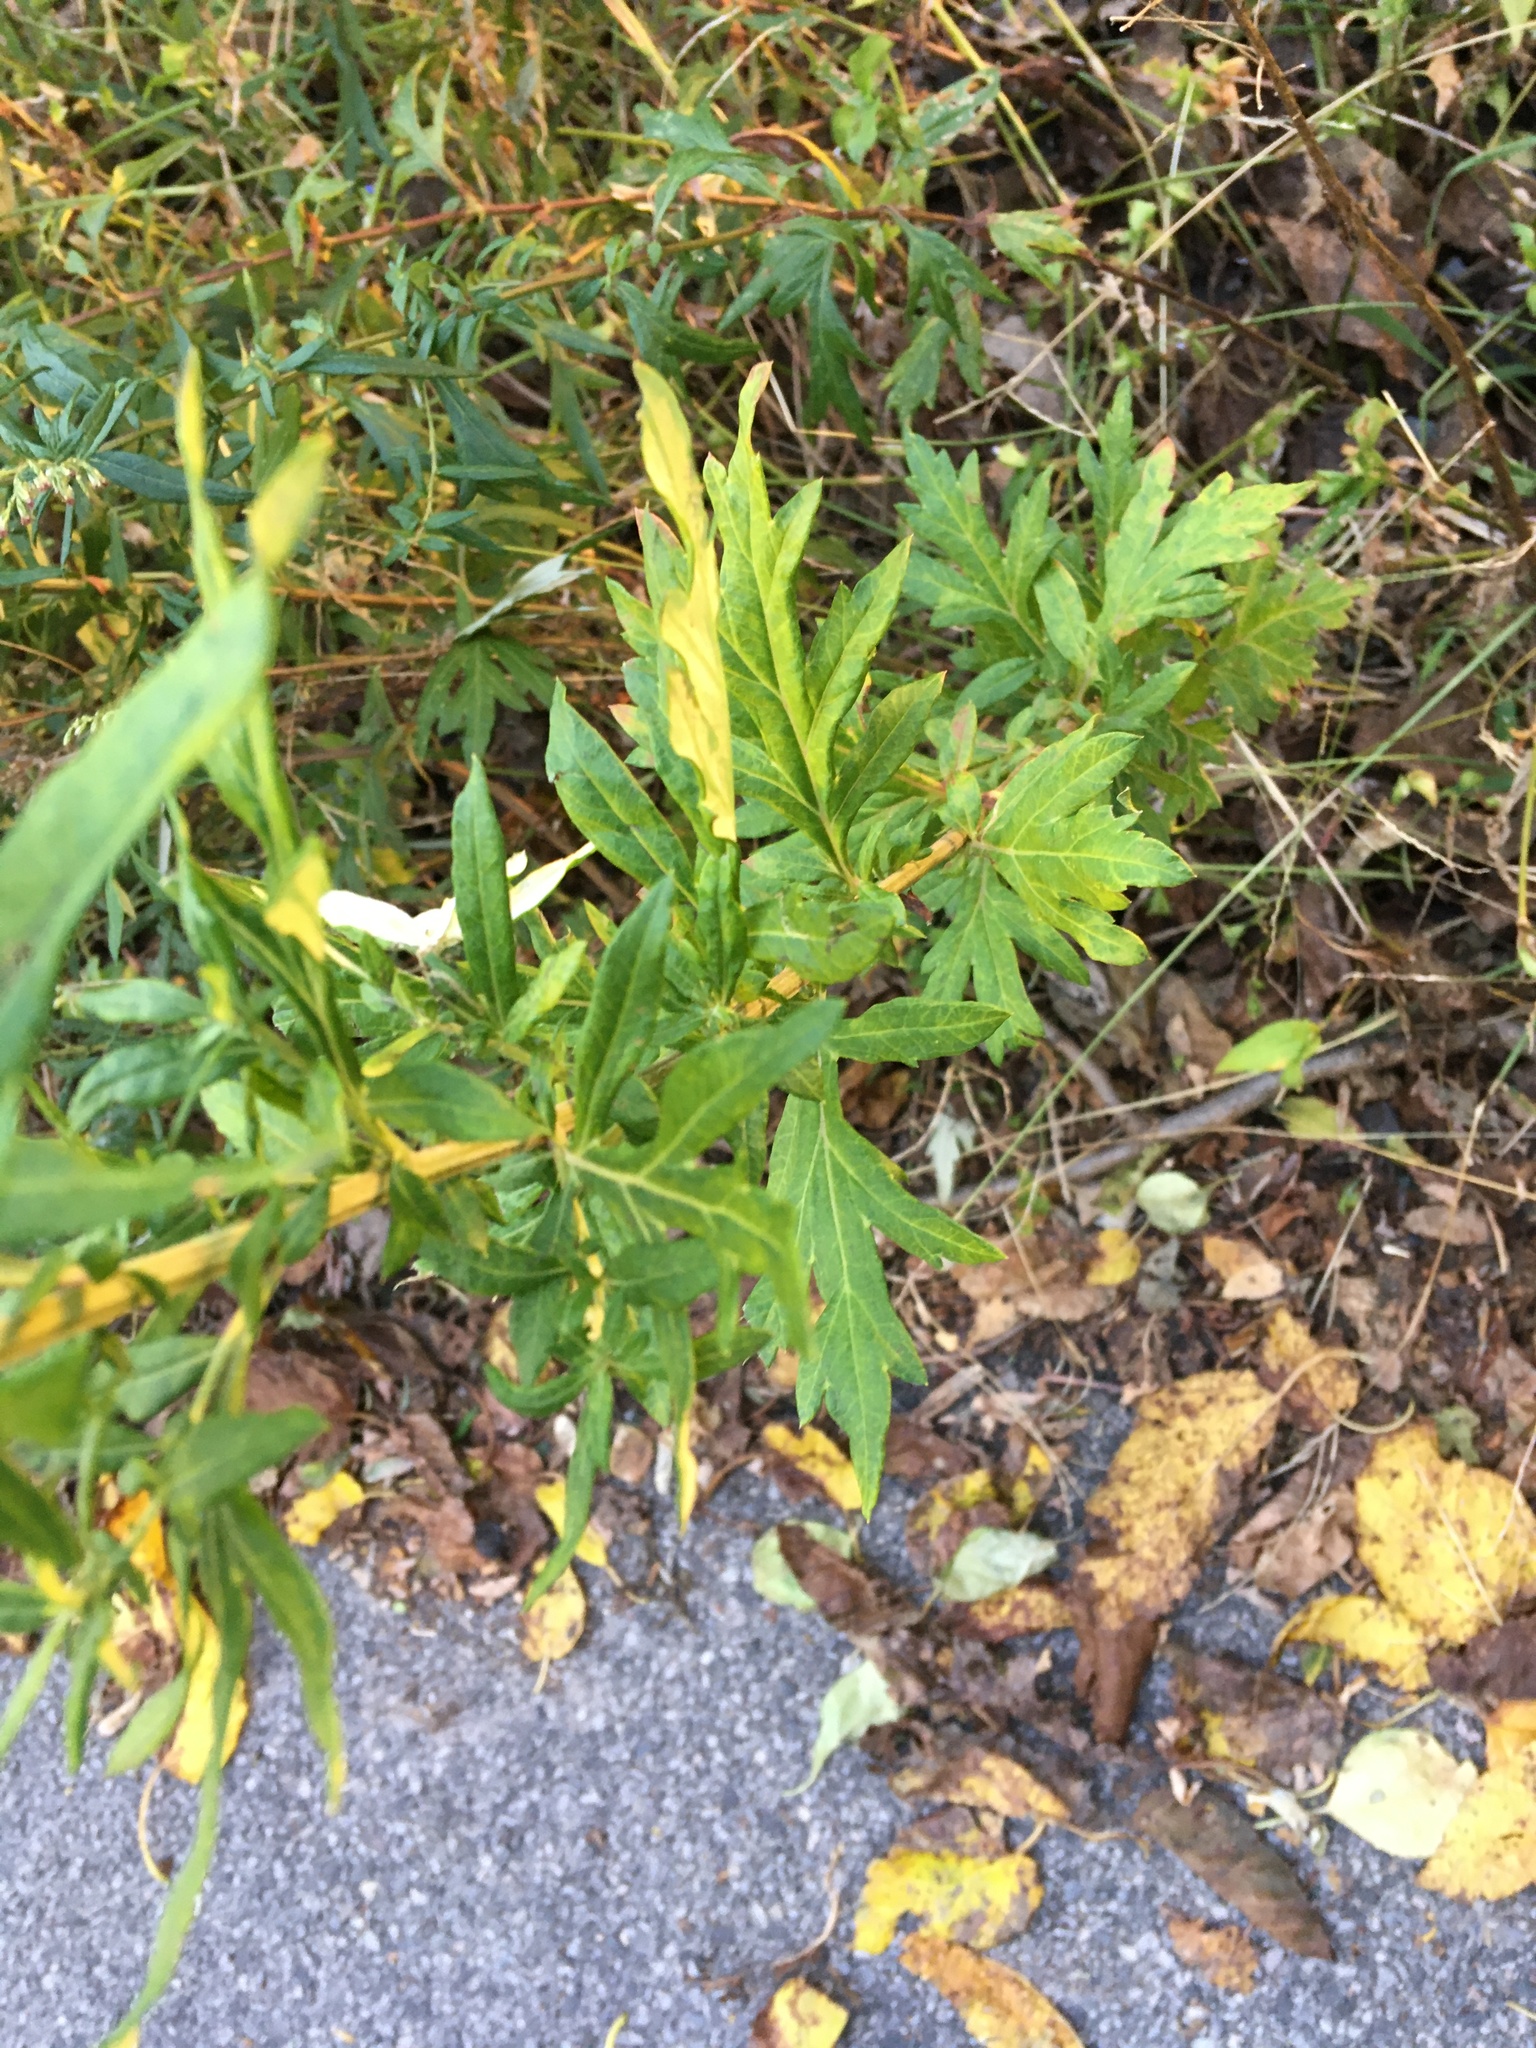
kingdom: Plantae
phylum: Tracheophyta
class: Magnoliopsida
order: Asterales
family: Asteraceae
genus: Artemisia
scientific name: Artemisia vulgaris
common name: Mugwort
